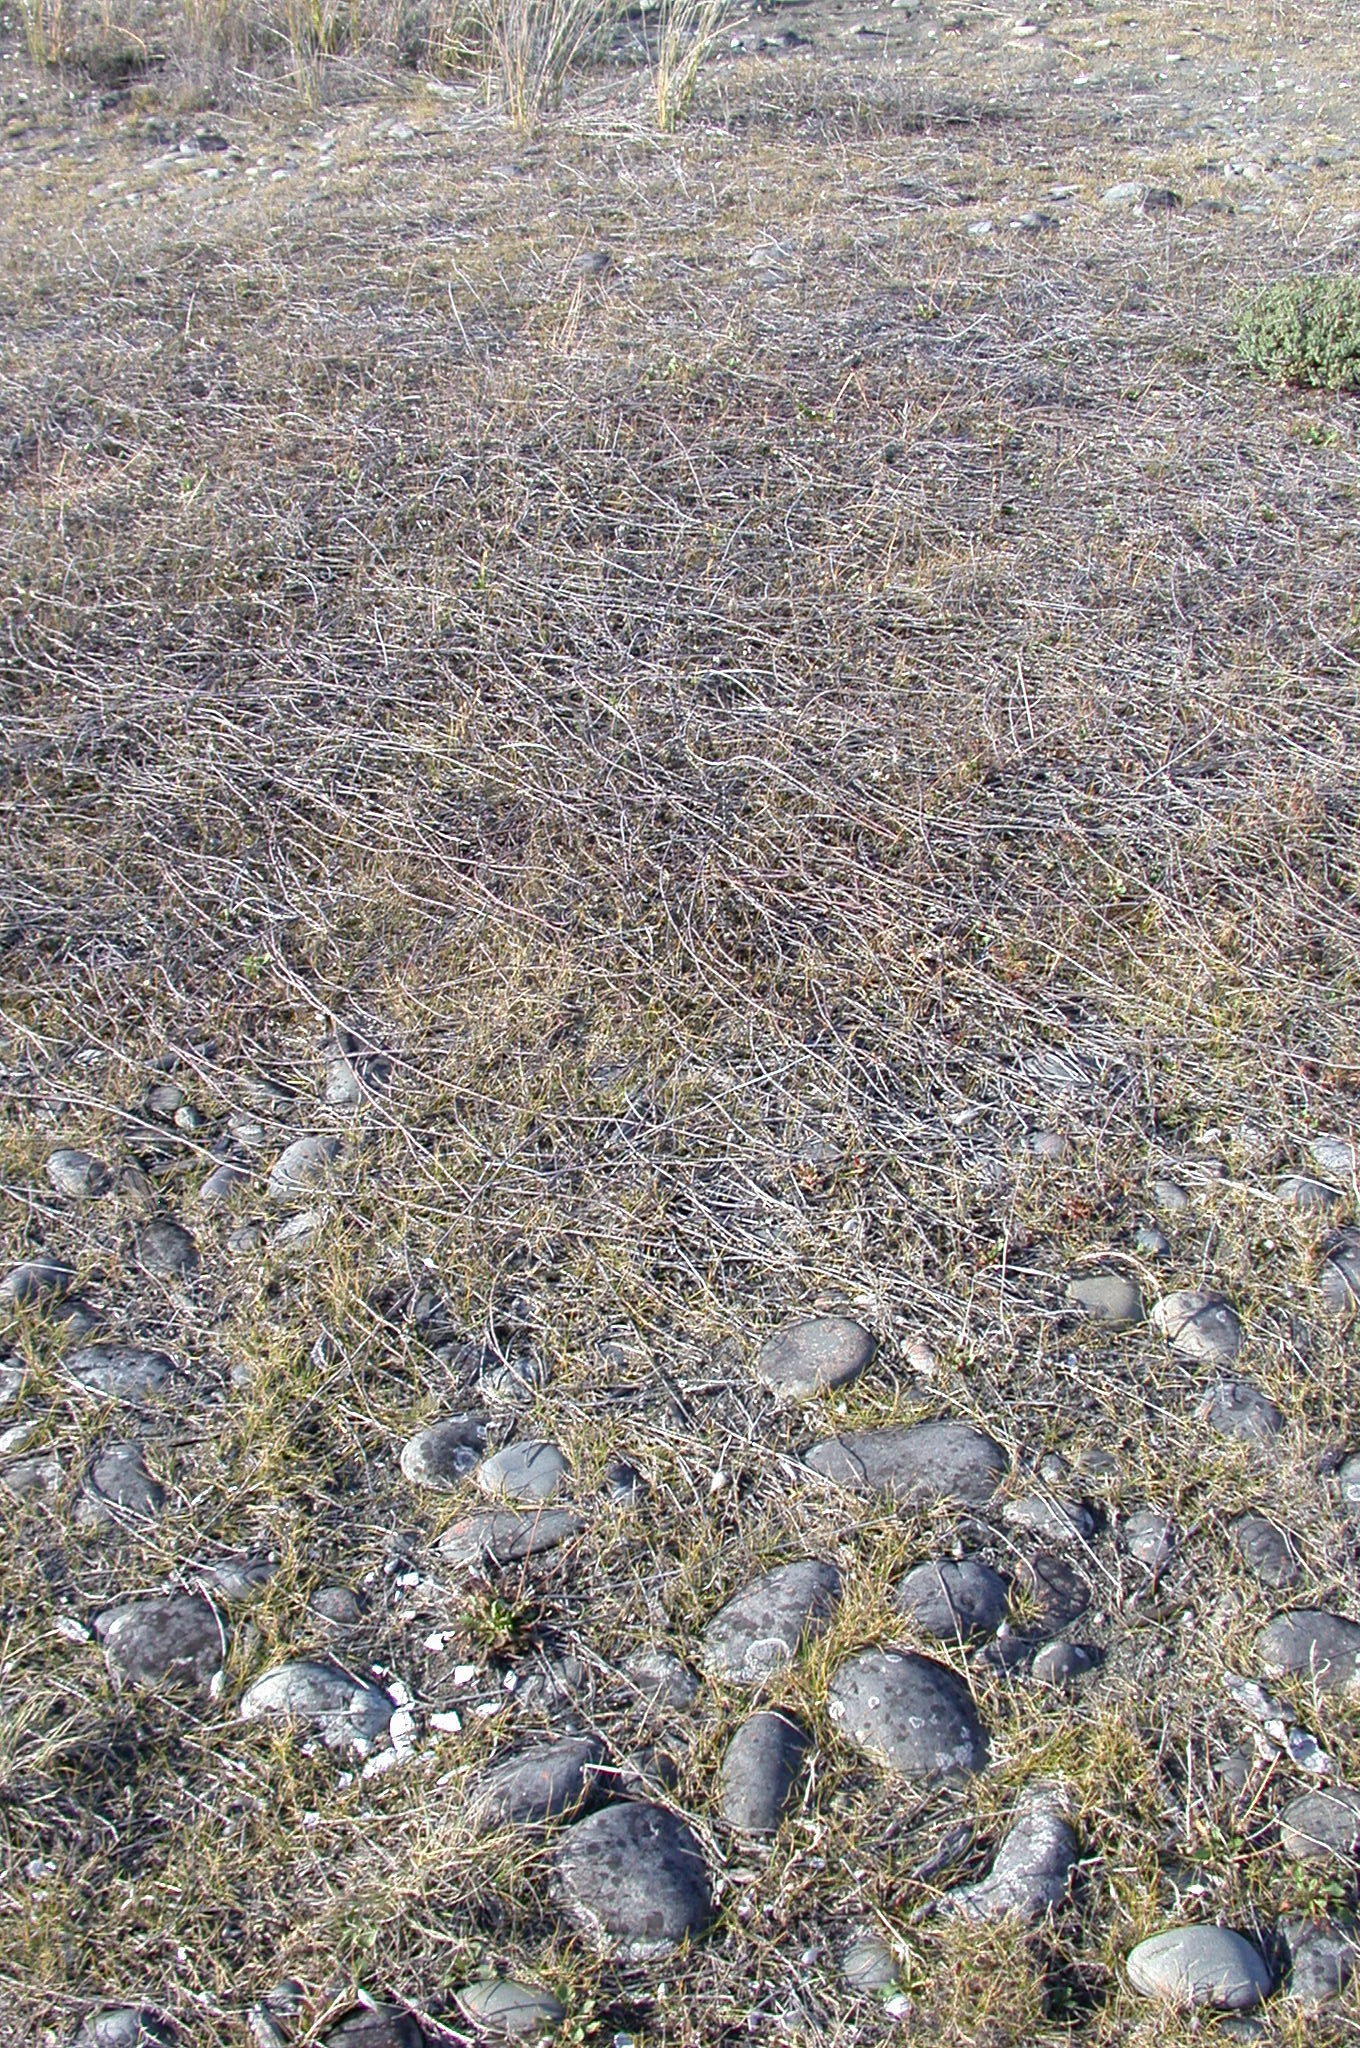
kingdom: Plantae
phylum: Tracheophyta
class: Magnoliopsida
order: Caryophyllales
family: Polygonaceae
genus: Muehlenbeckia
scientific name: Muehlenbeckia ephedroides
